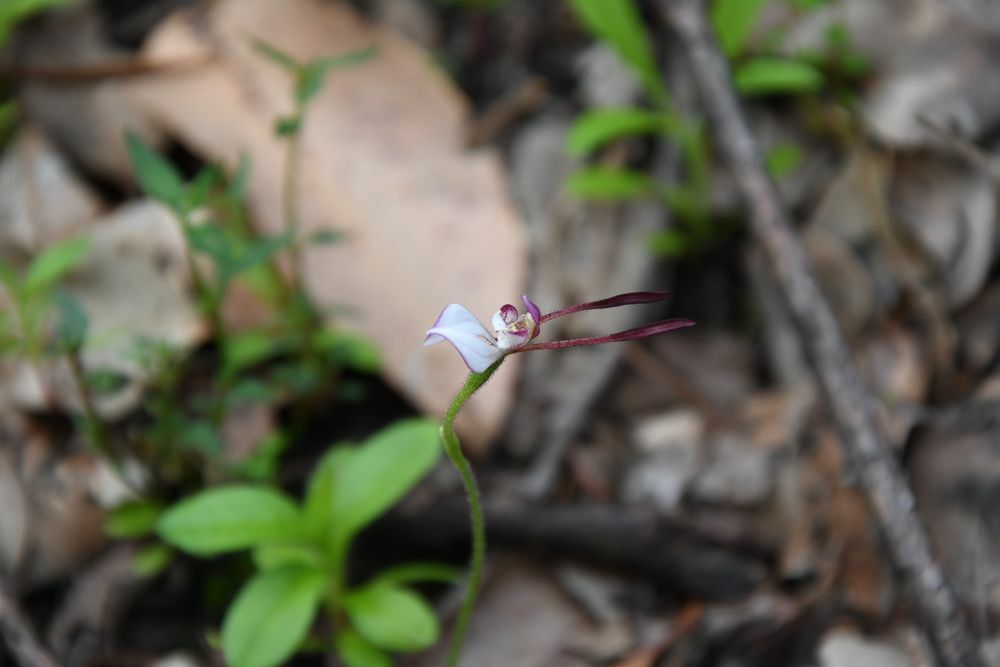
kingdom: Plantae
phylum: Tracheophyta
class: Liliopsida
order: Asparagales
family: Orchidaceae
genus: Leptoceras
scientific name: Leptoceras menziesii
